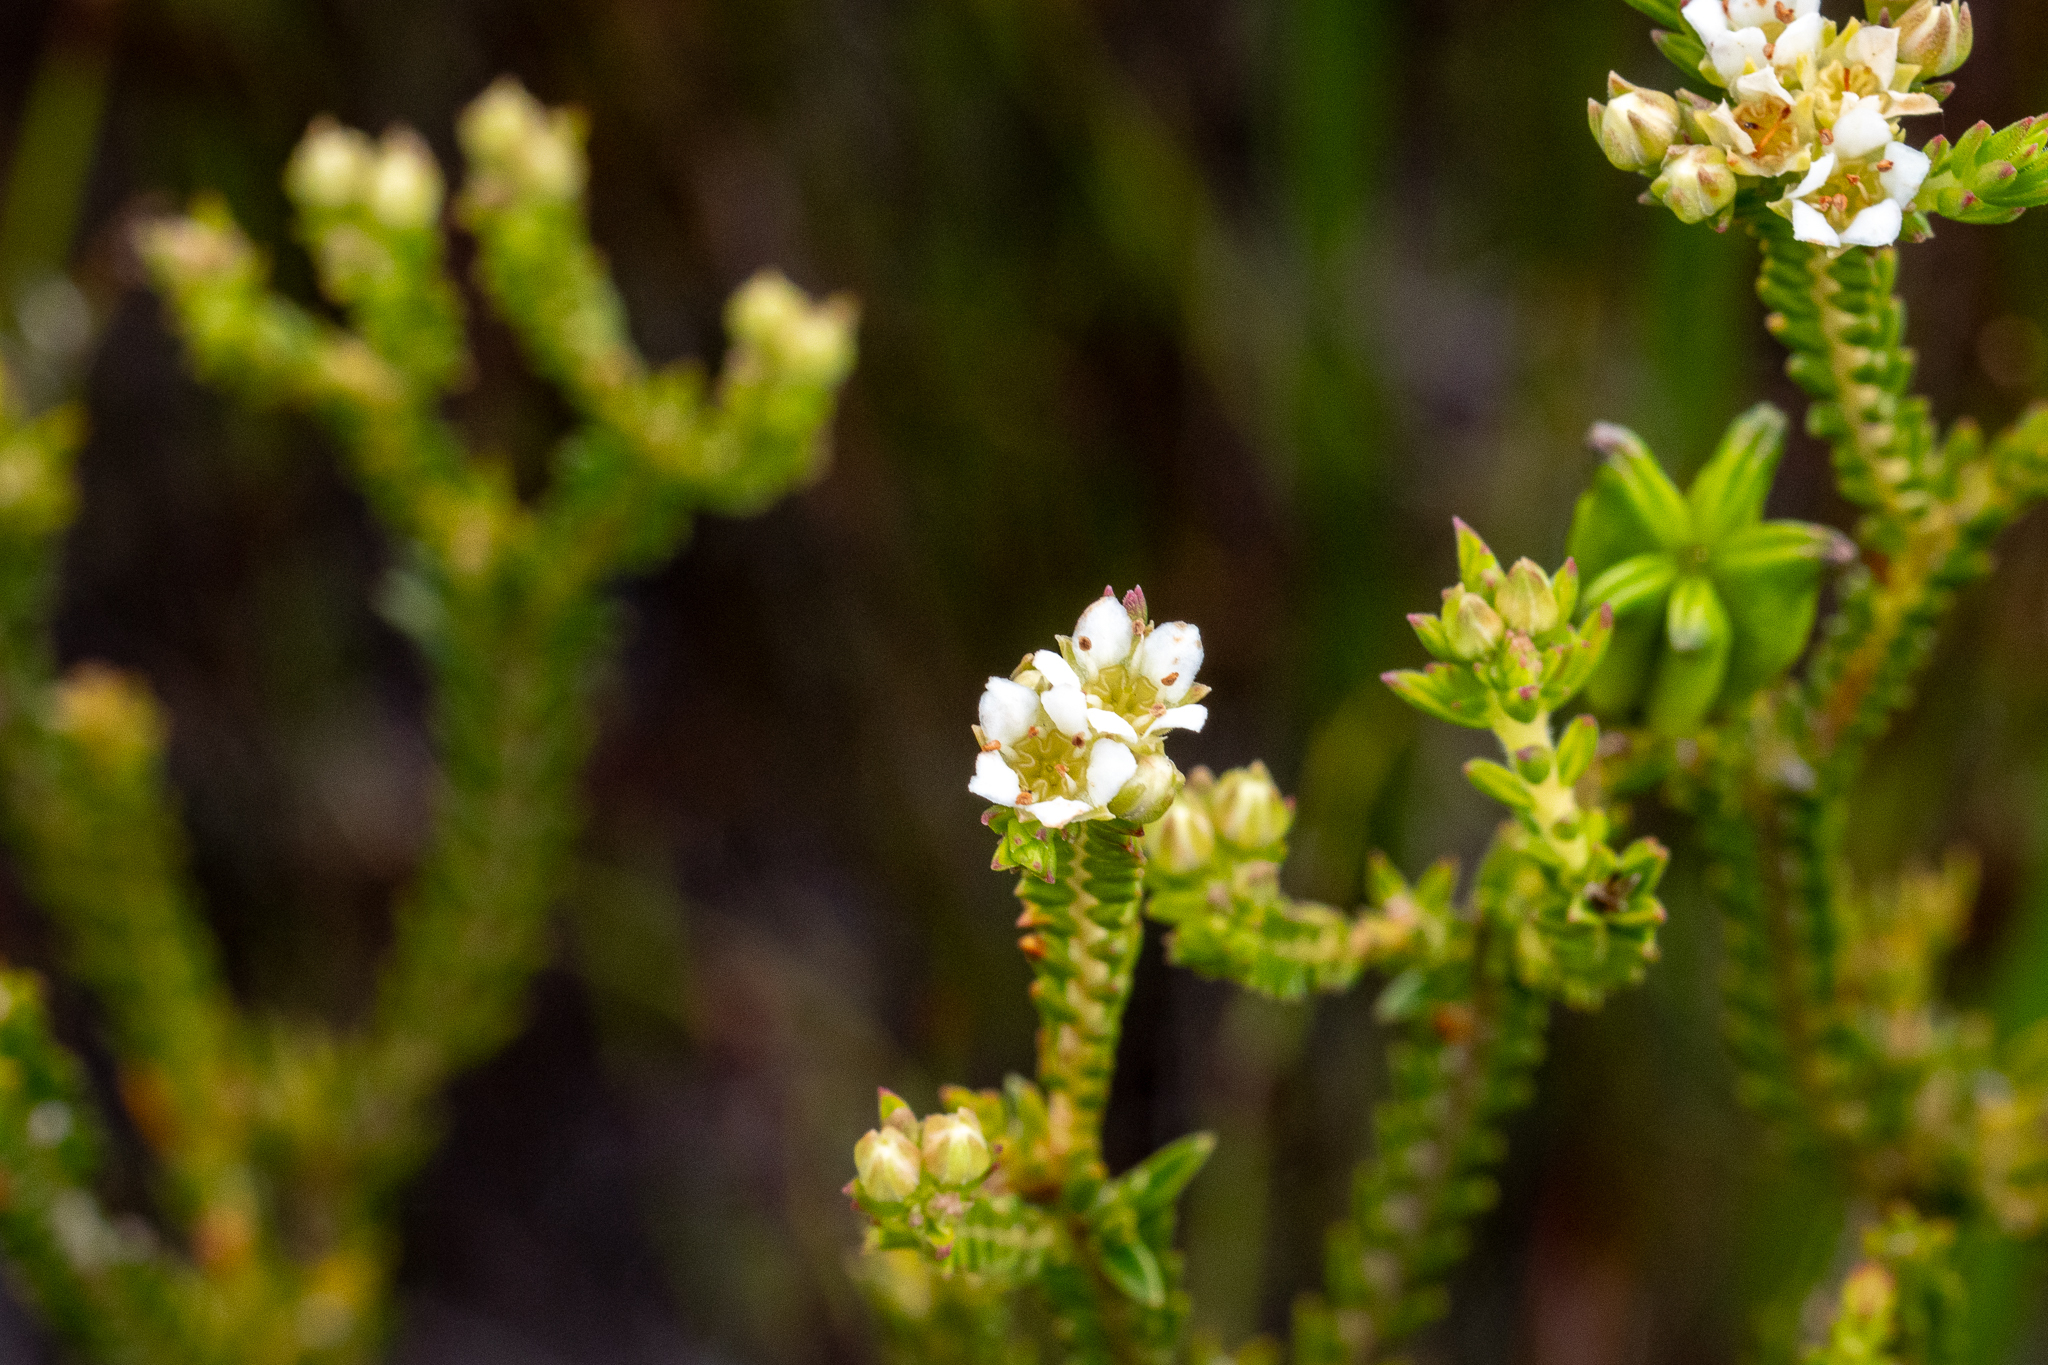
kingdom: Plantae
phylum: Tracheophyta
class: Magnoliopsida
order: Sapindales
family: Rutaceae
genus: Diosma
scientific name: Diosma oppositifolia
